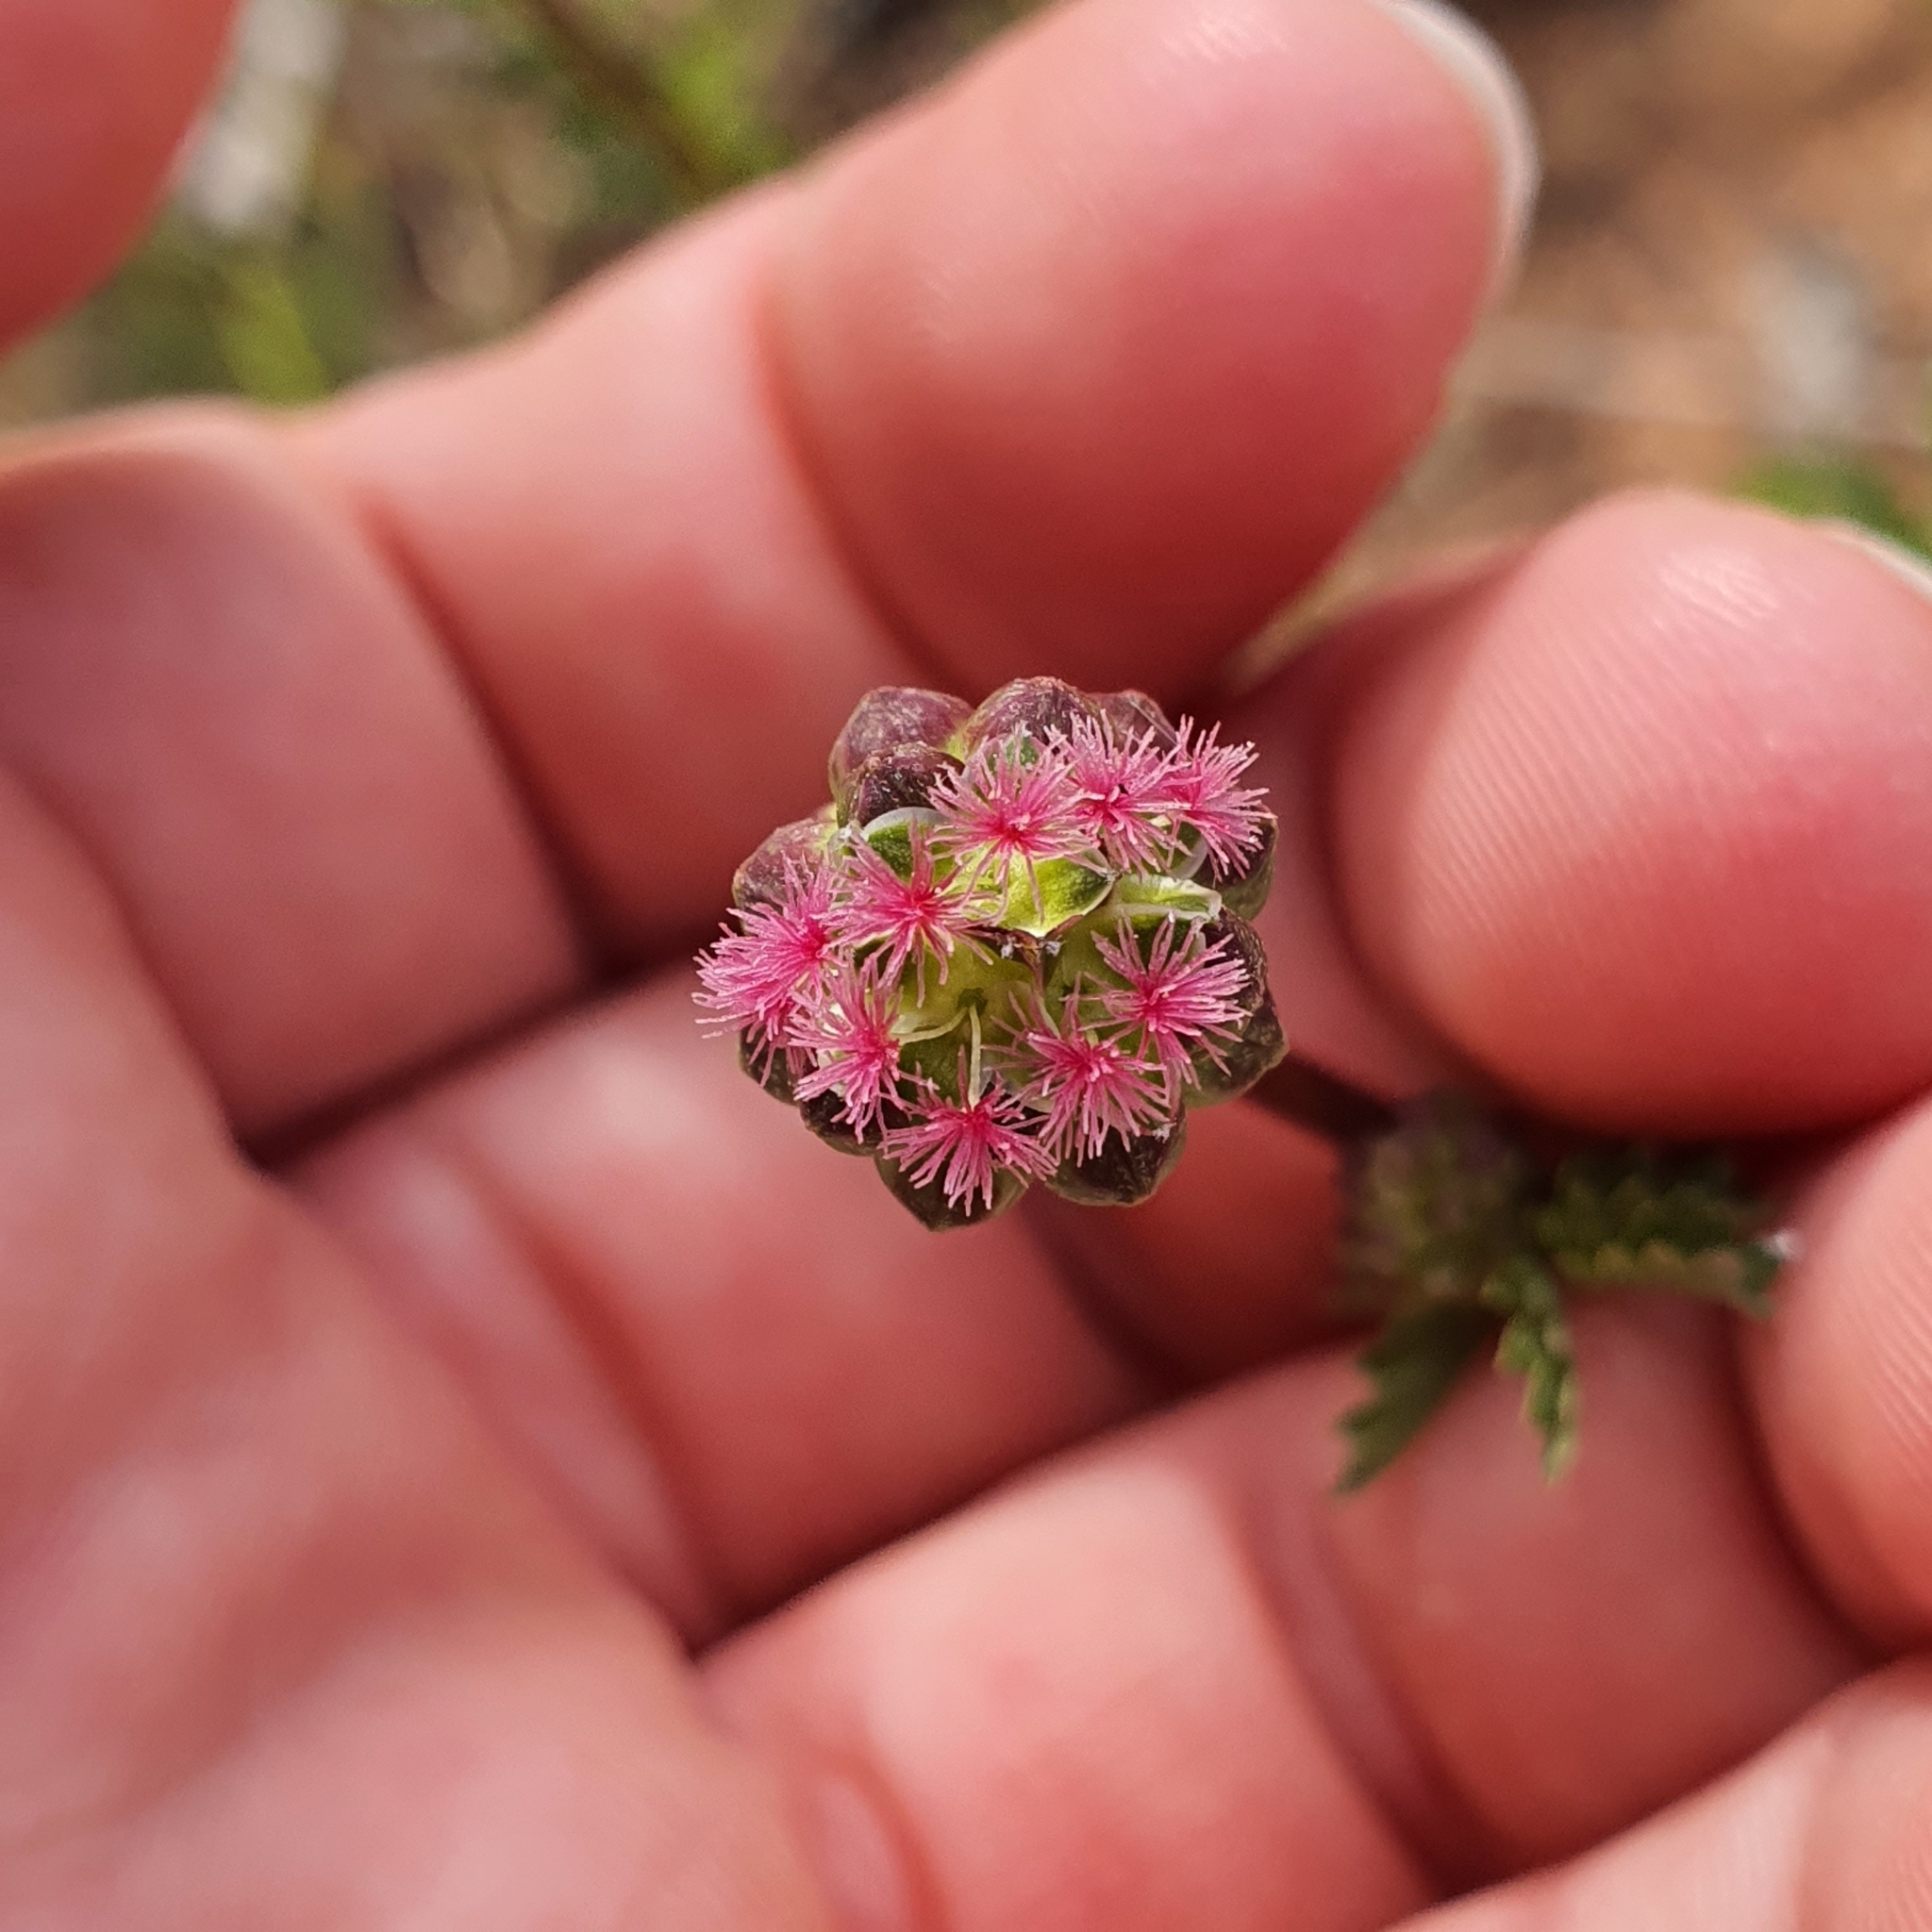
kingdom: Plantae
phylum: Tracheophyta
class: Magnoliopsida
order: Rosales
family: Rosaceae
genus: Poterium
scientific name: Poterium sanguisorba
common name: Salad burnet
